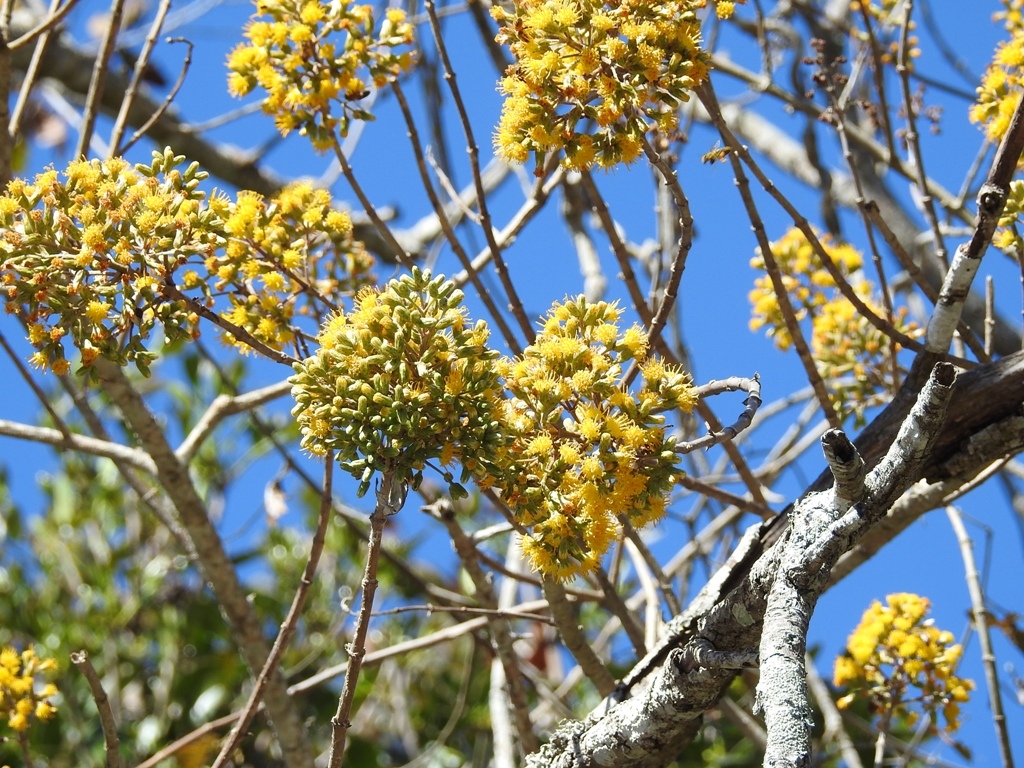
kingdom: Plantae
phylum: Tracheophyta
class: Magnoliopsida
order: Asterales
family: Asteraceae
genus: Sinclairia
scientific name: Sinclairia discolor
